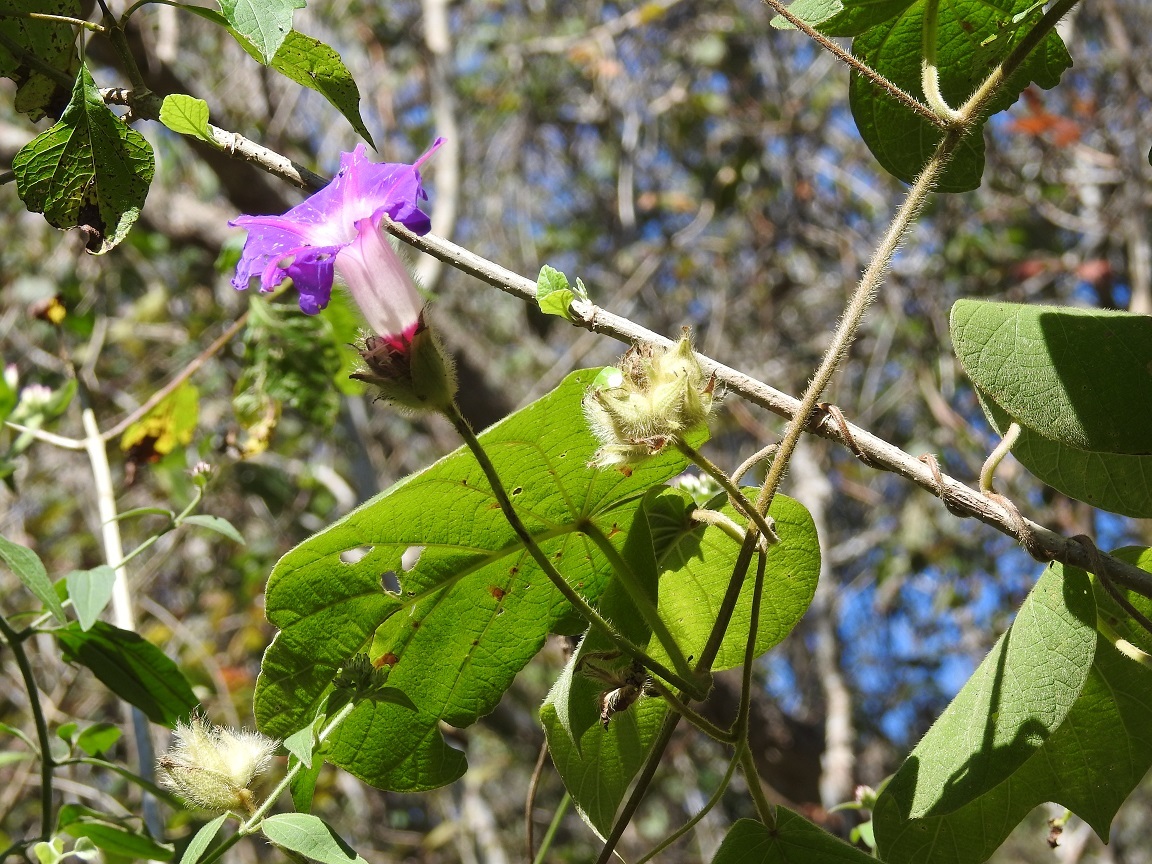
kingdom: Plantae
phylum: Tracheophyta
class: Magnoliopsida
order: Solanales
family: Convolvulaceae
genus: Ipomoea
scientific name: Ipomoea villifera
